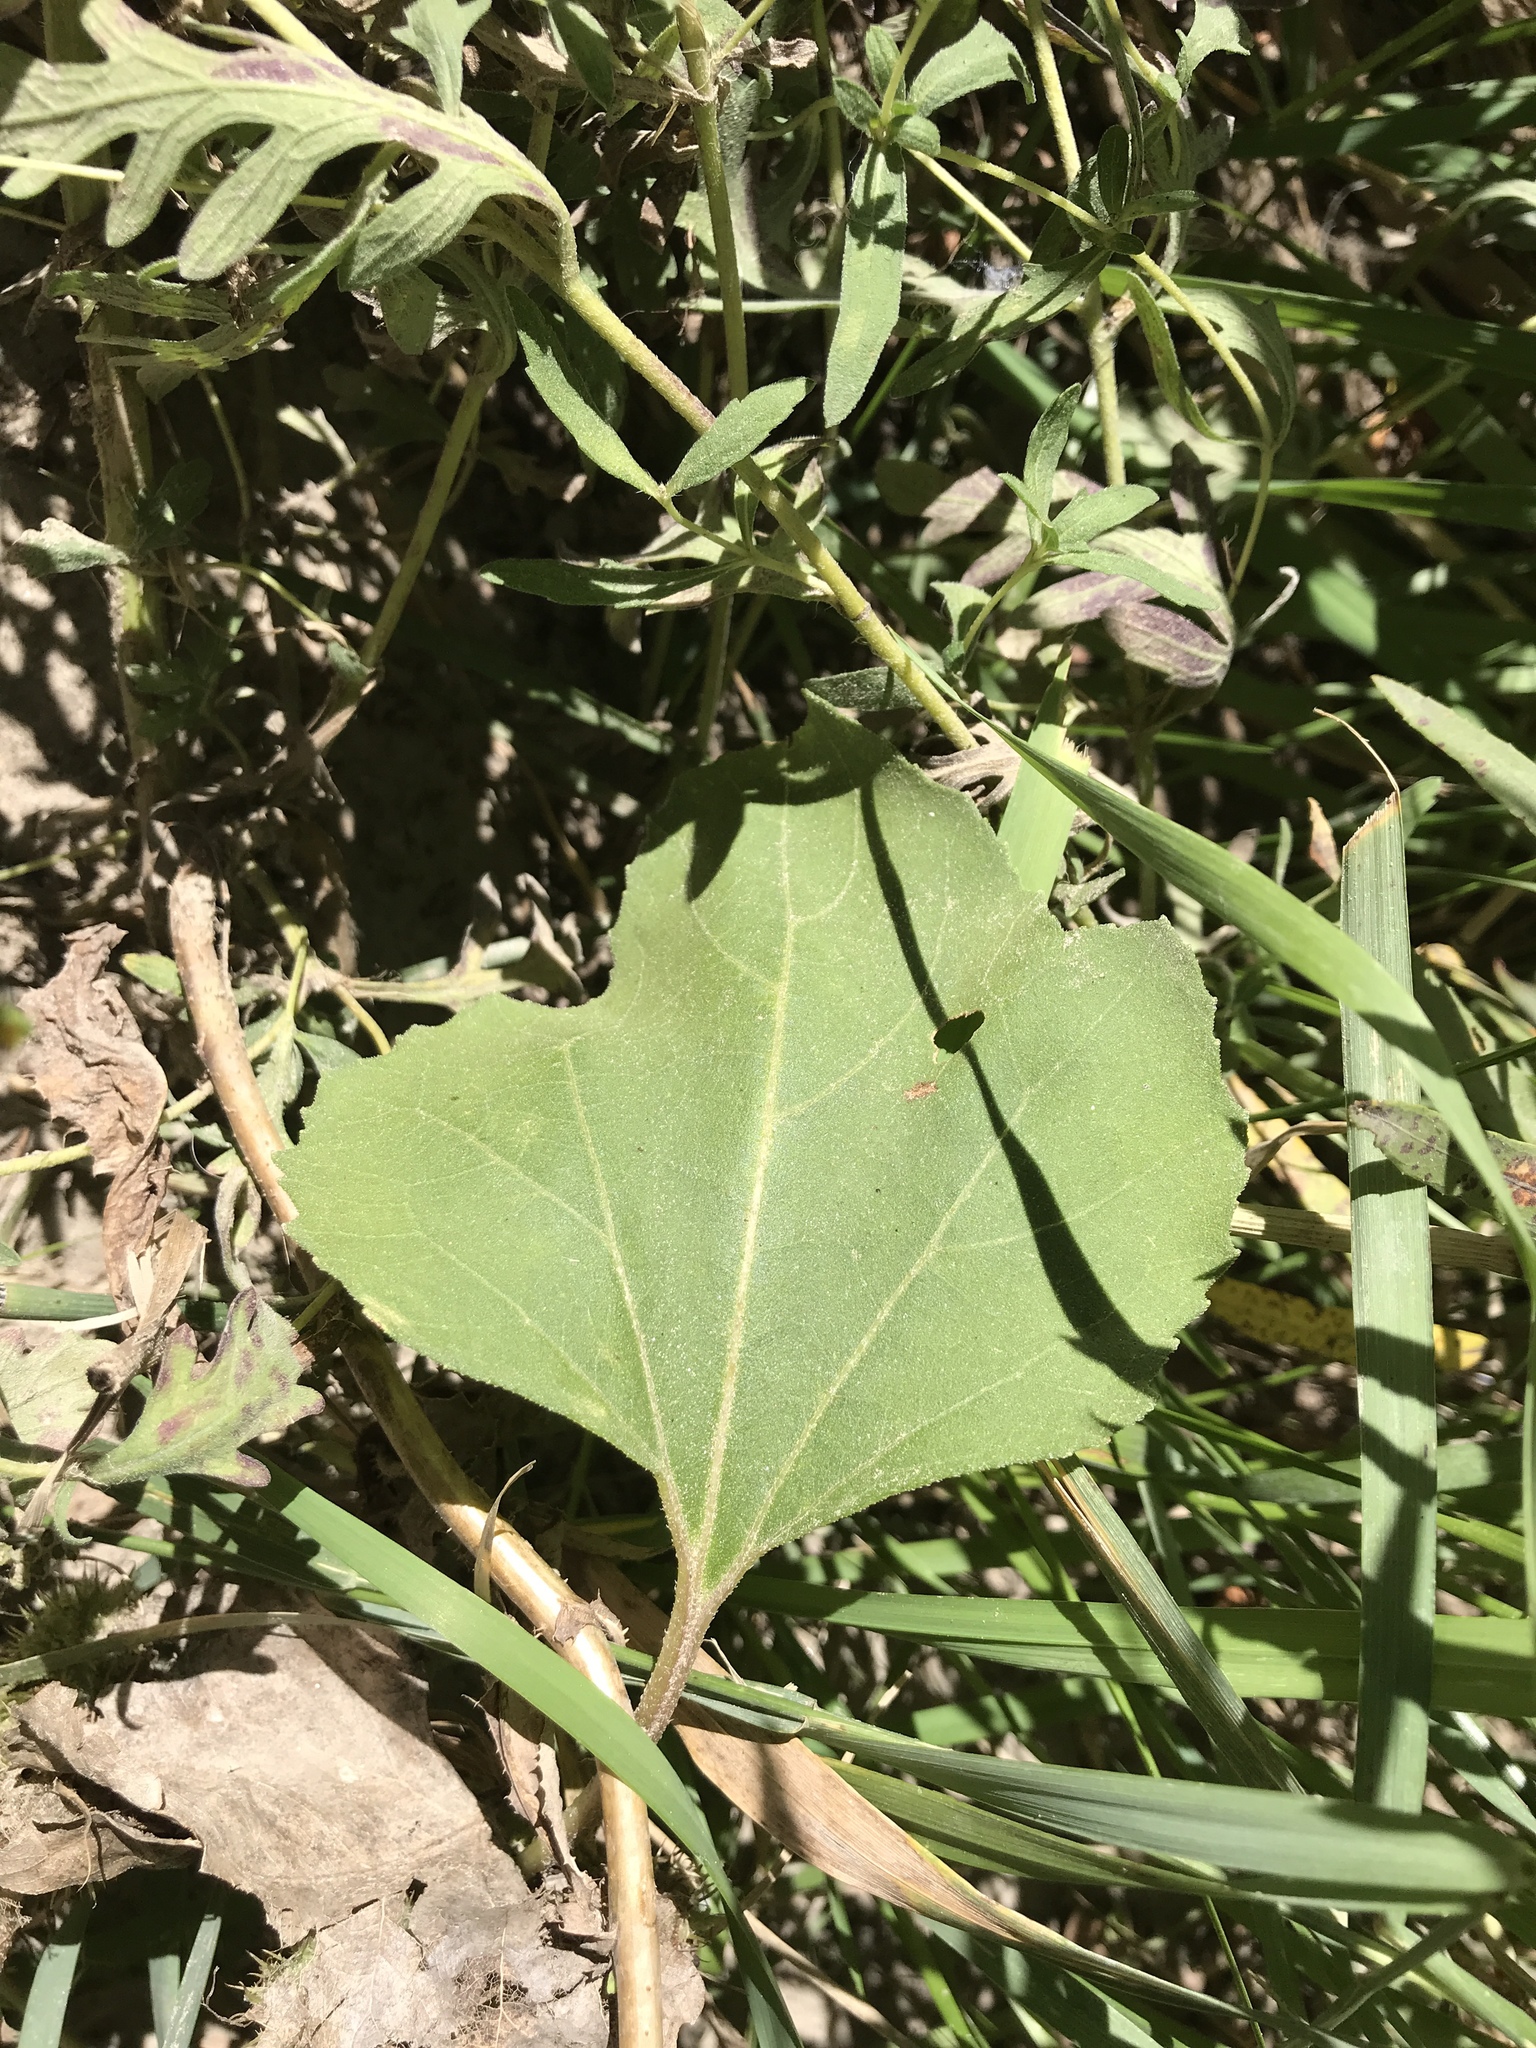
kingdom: Plantae
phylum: Tracheophyta
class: Magnoliopsida
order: Asterales
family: Asteraceae
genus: Xanthium
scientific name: Xanthium strumarium
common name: Rough cocklebur
